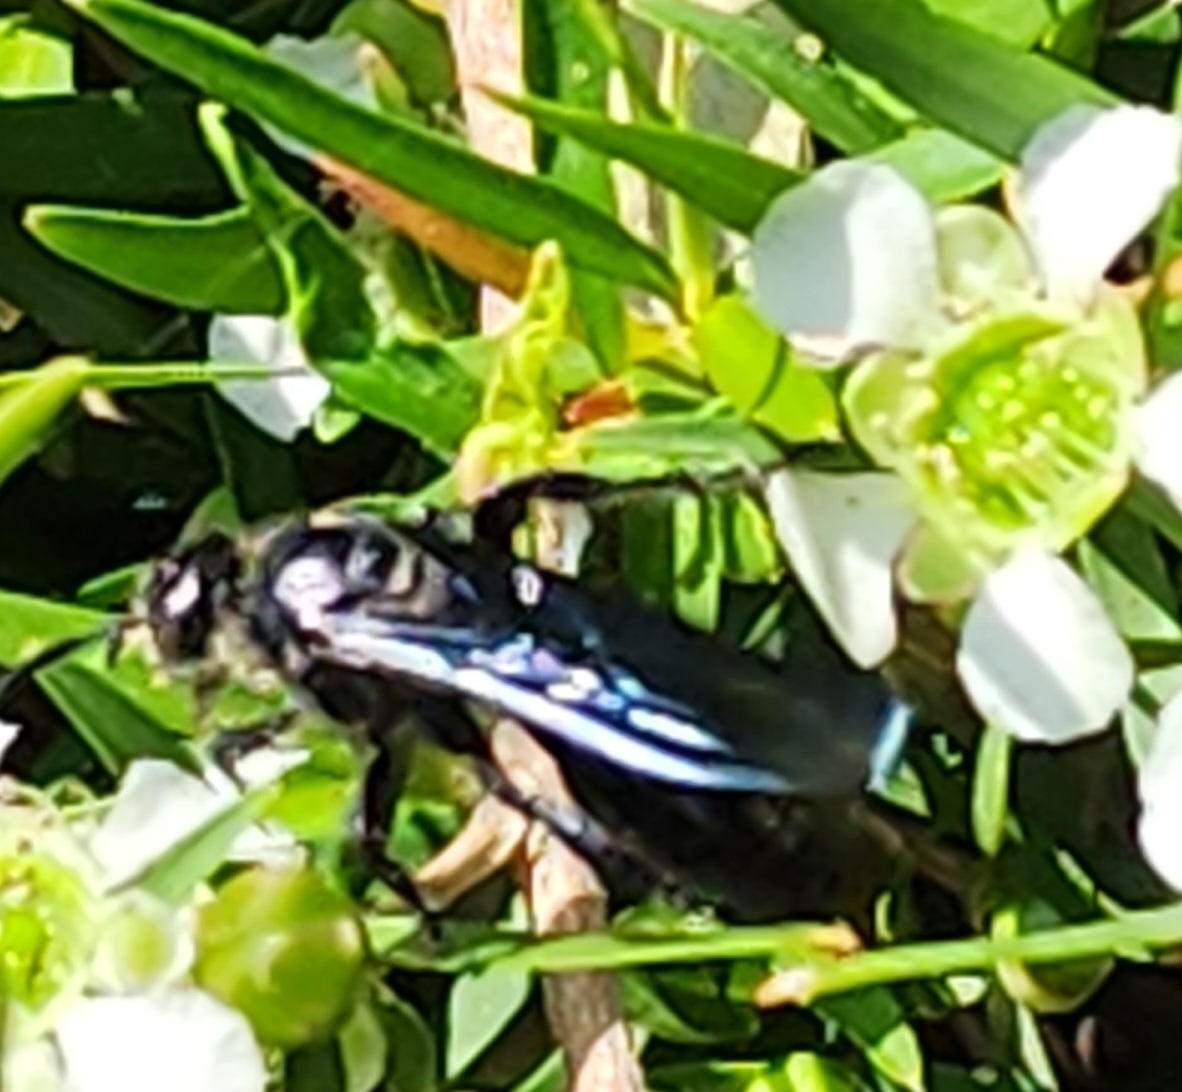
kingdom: Animalia
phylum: Arthropoda
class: Insecta
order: Hymenoptera
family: Scoliidae
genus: Austroscolia
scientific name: Austroscolia
